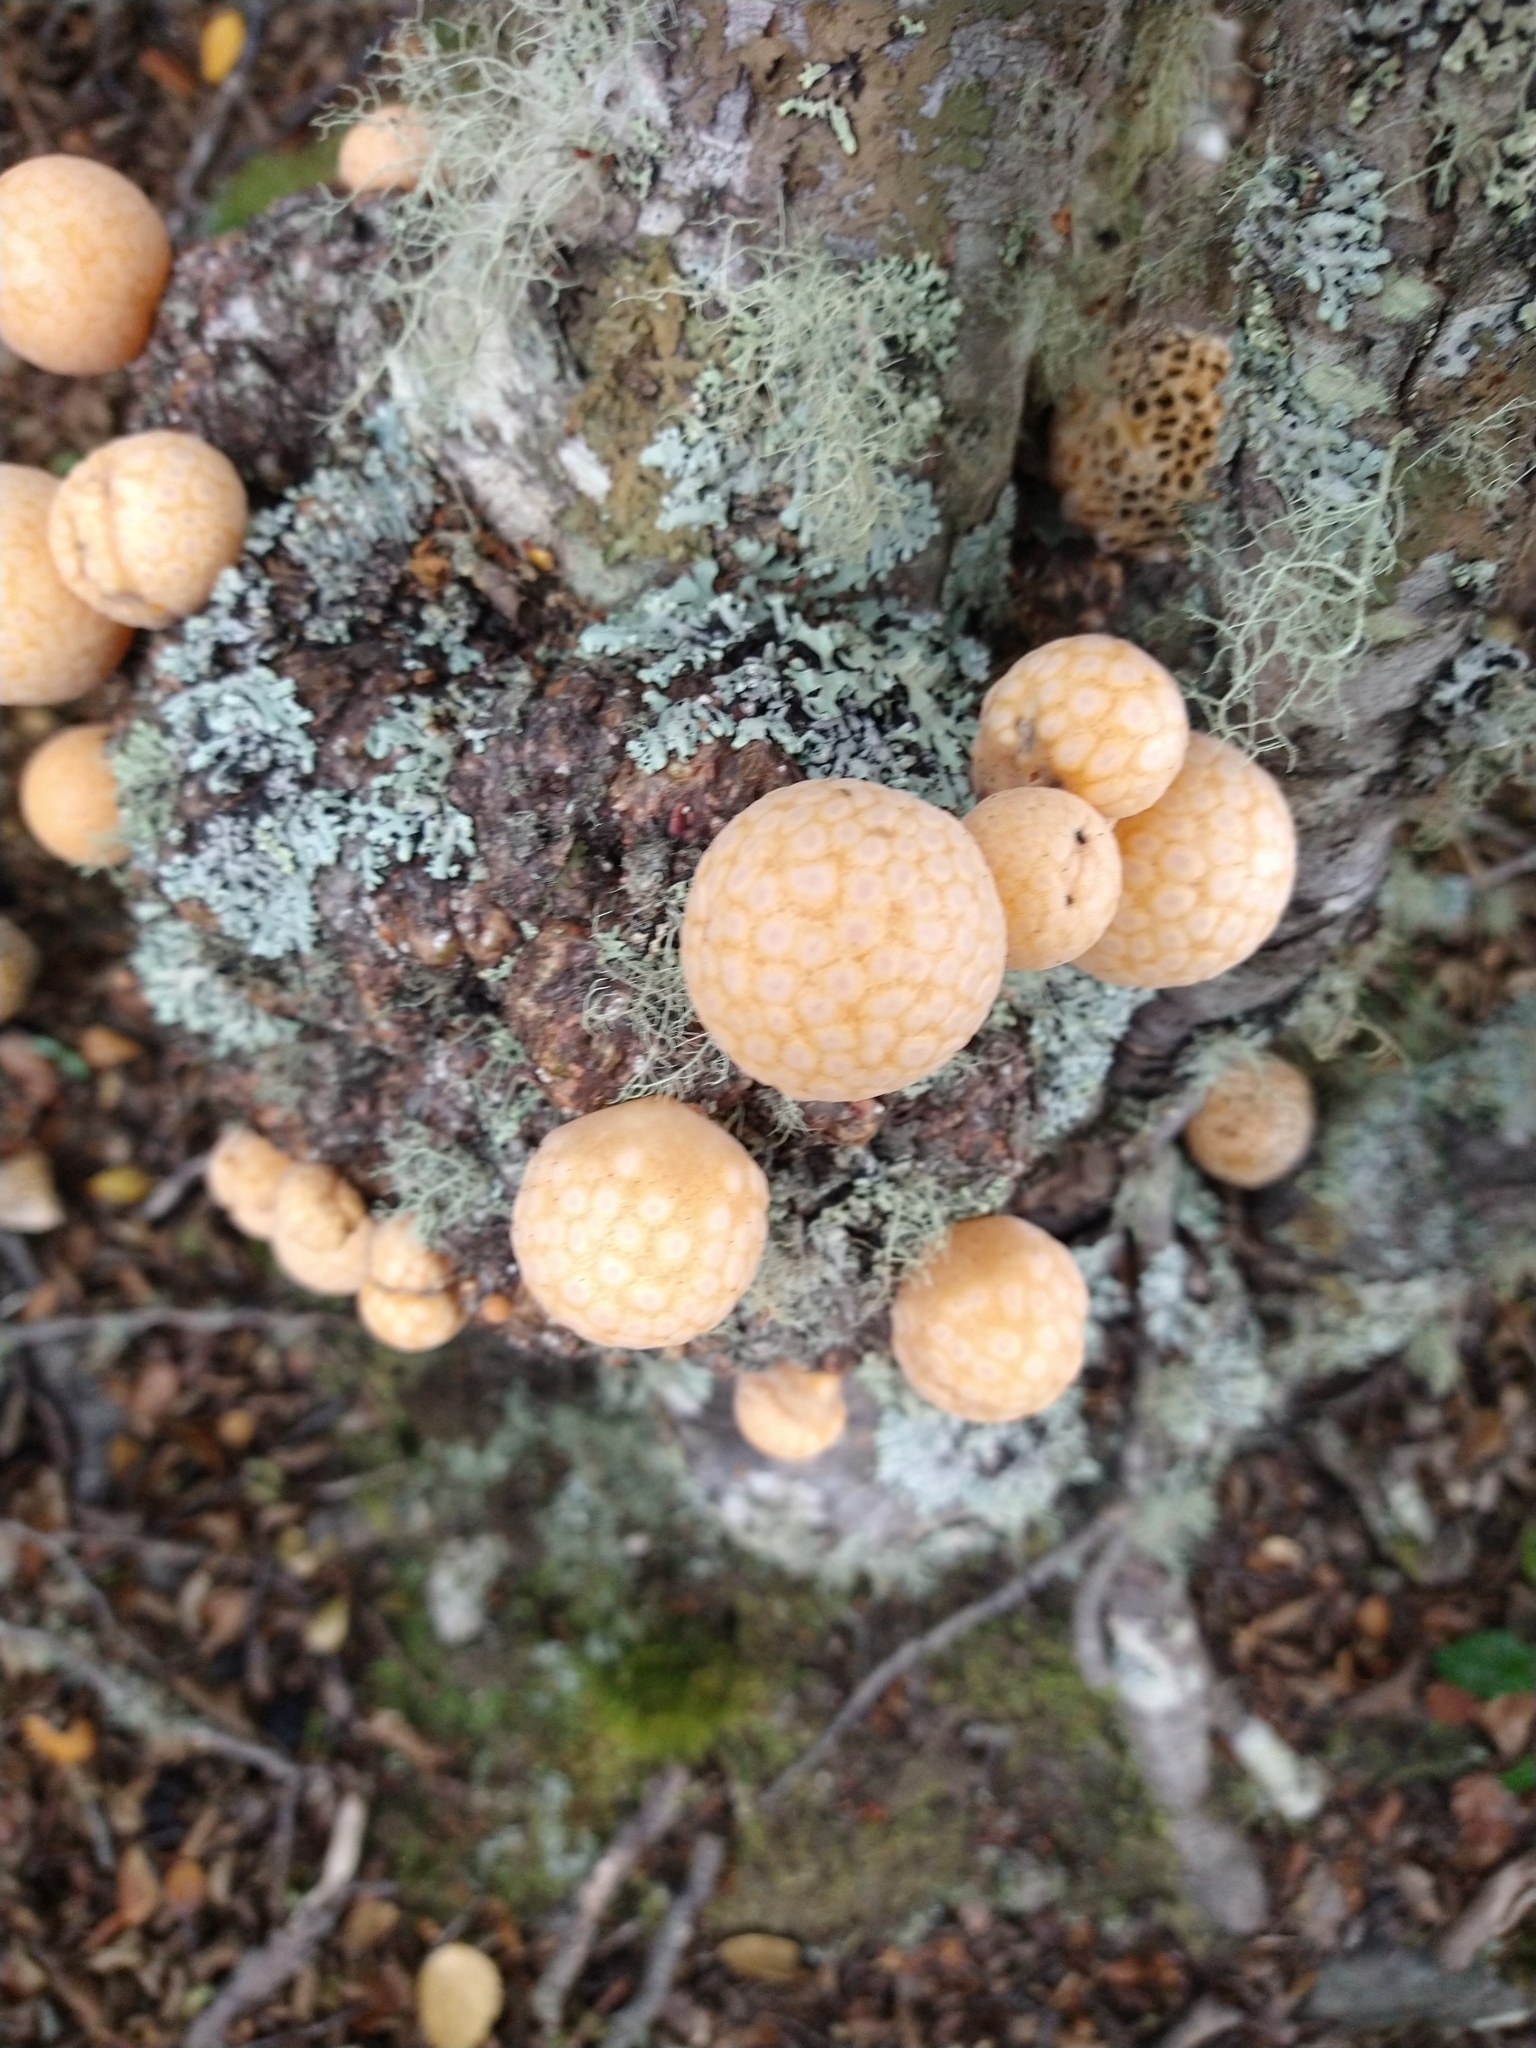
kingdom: Fungi
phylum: Ascomycota
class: Leotiomycetes
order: Cyttariales
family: Cyttariaceae
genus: Cyttaria
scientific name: Cyttaria darwinii
